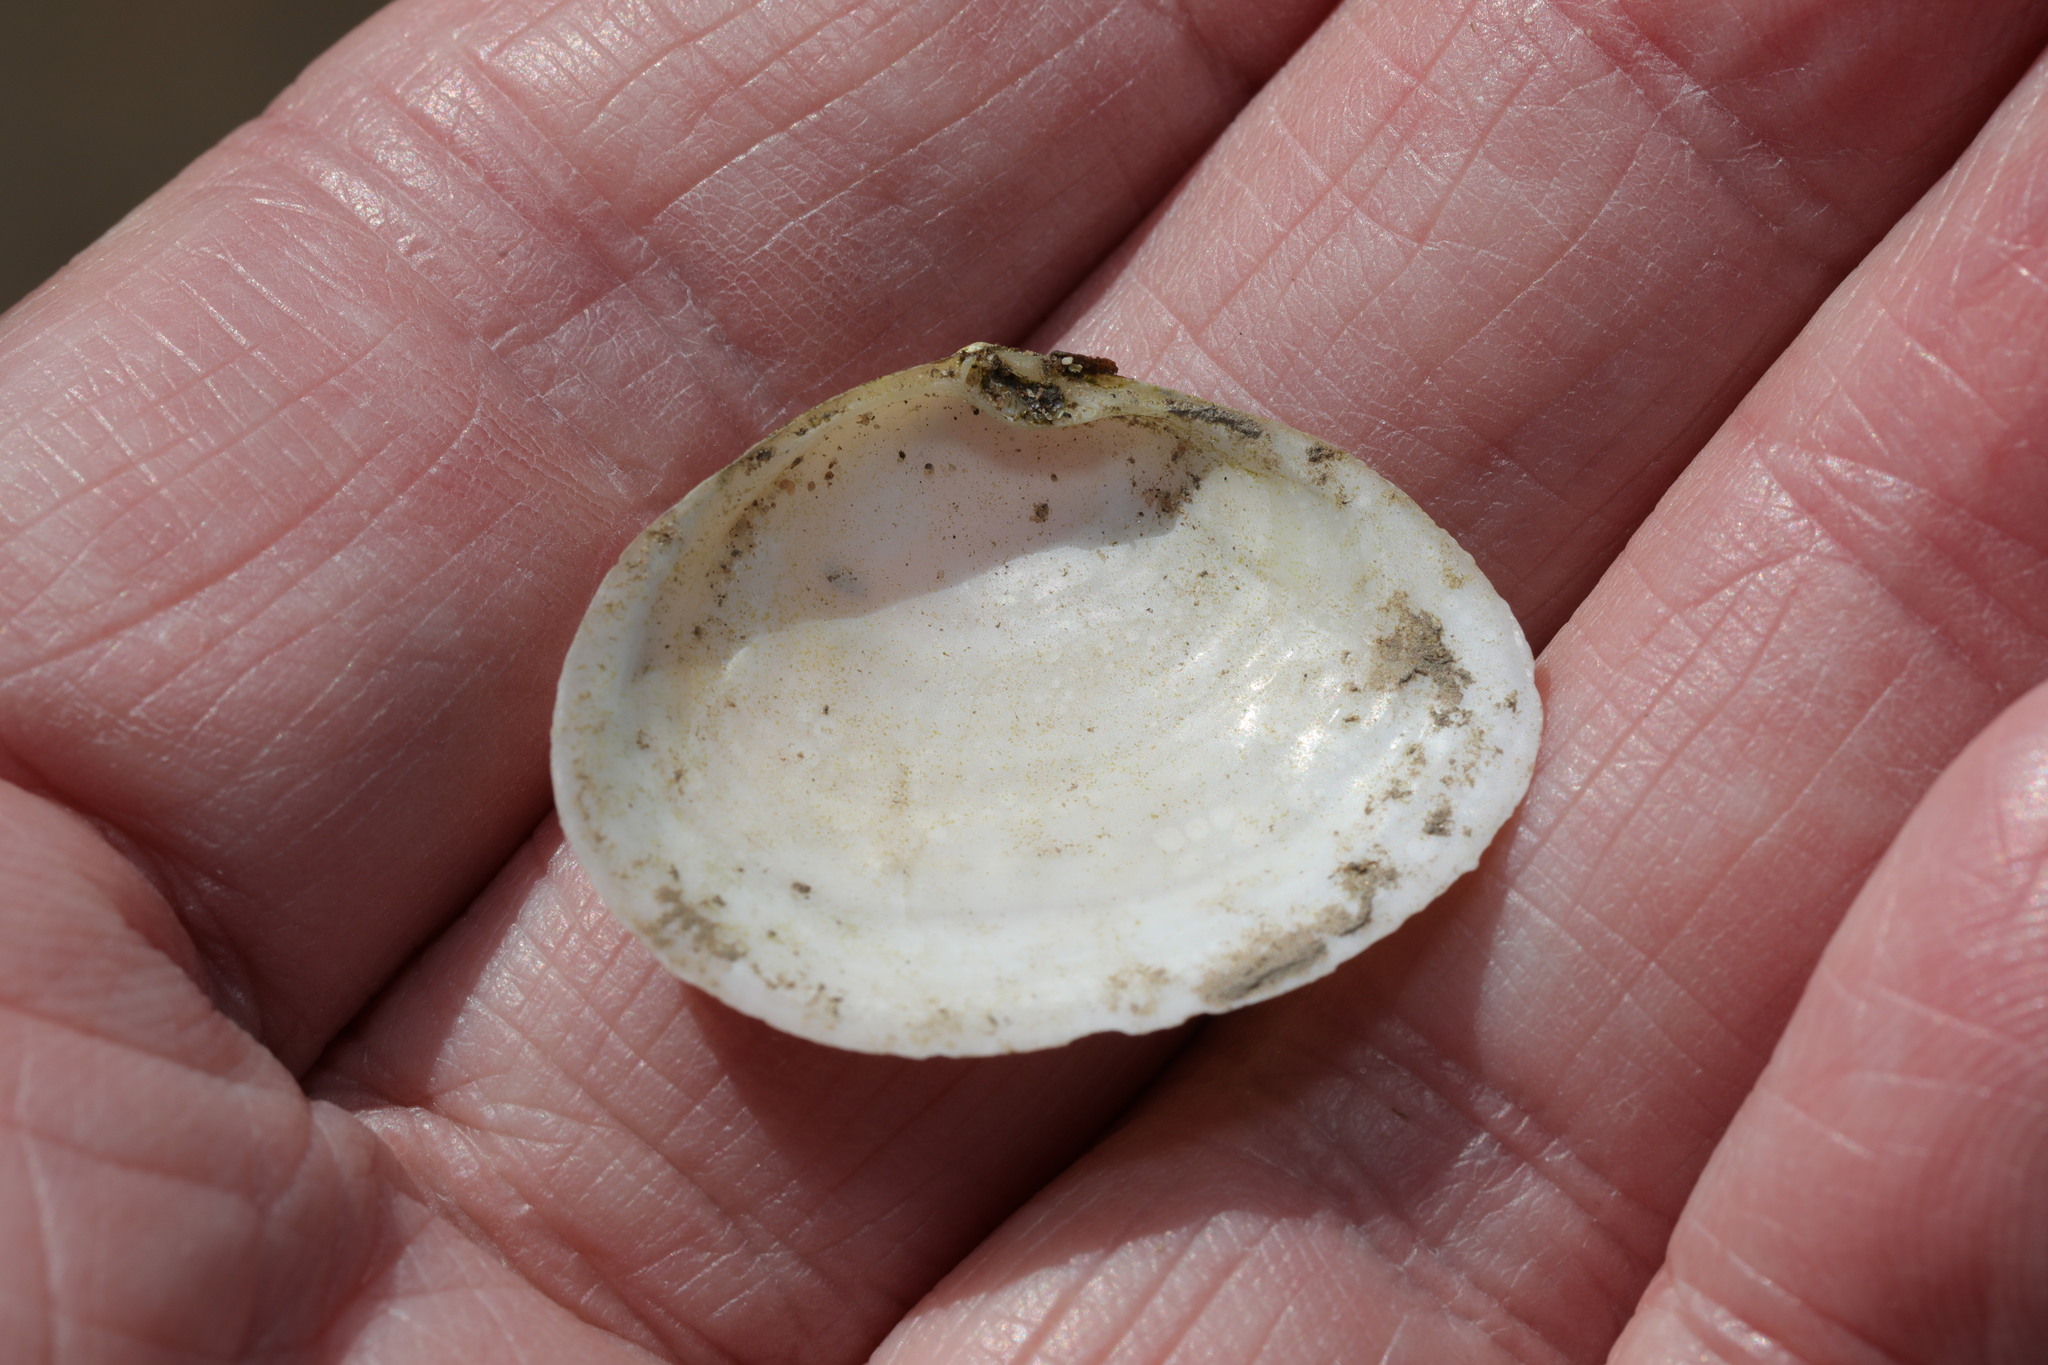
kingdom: Animalia
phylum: Mollusca
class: Bivalvia
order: Cardiida
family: Semelidae
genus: Scrobicularia
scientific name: Scrobicularia plana
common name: Peppery furrow shell
